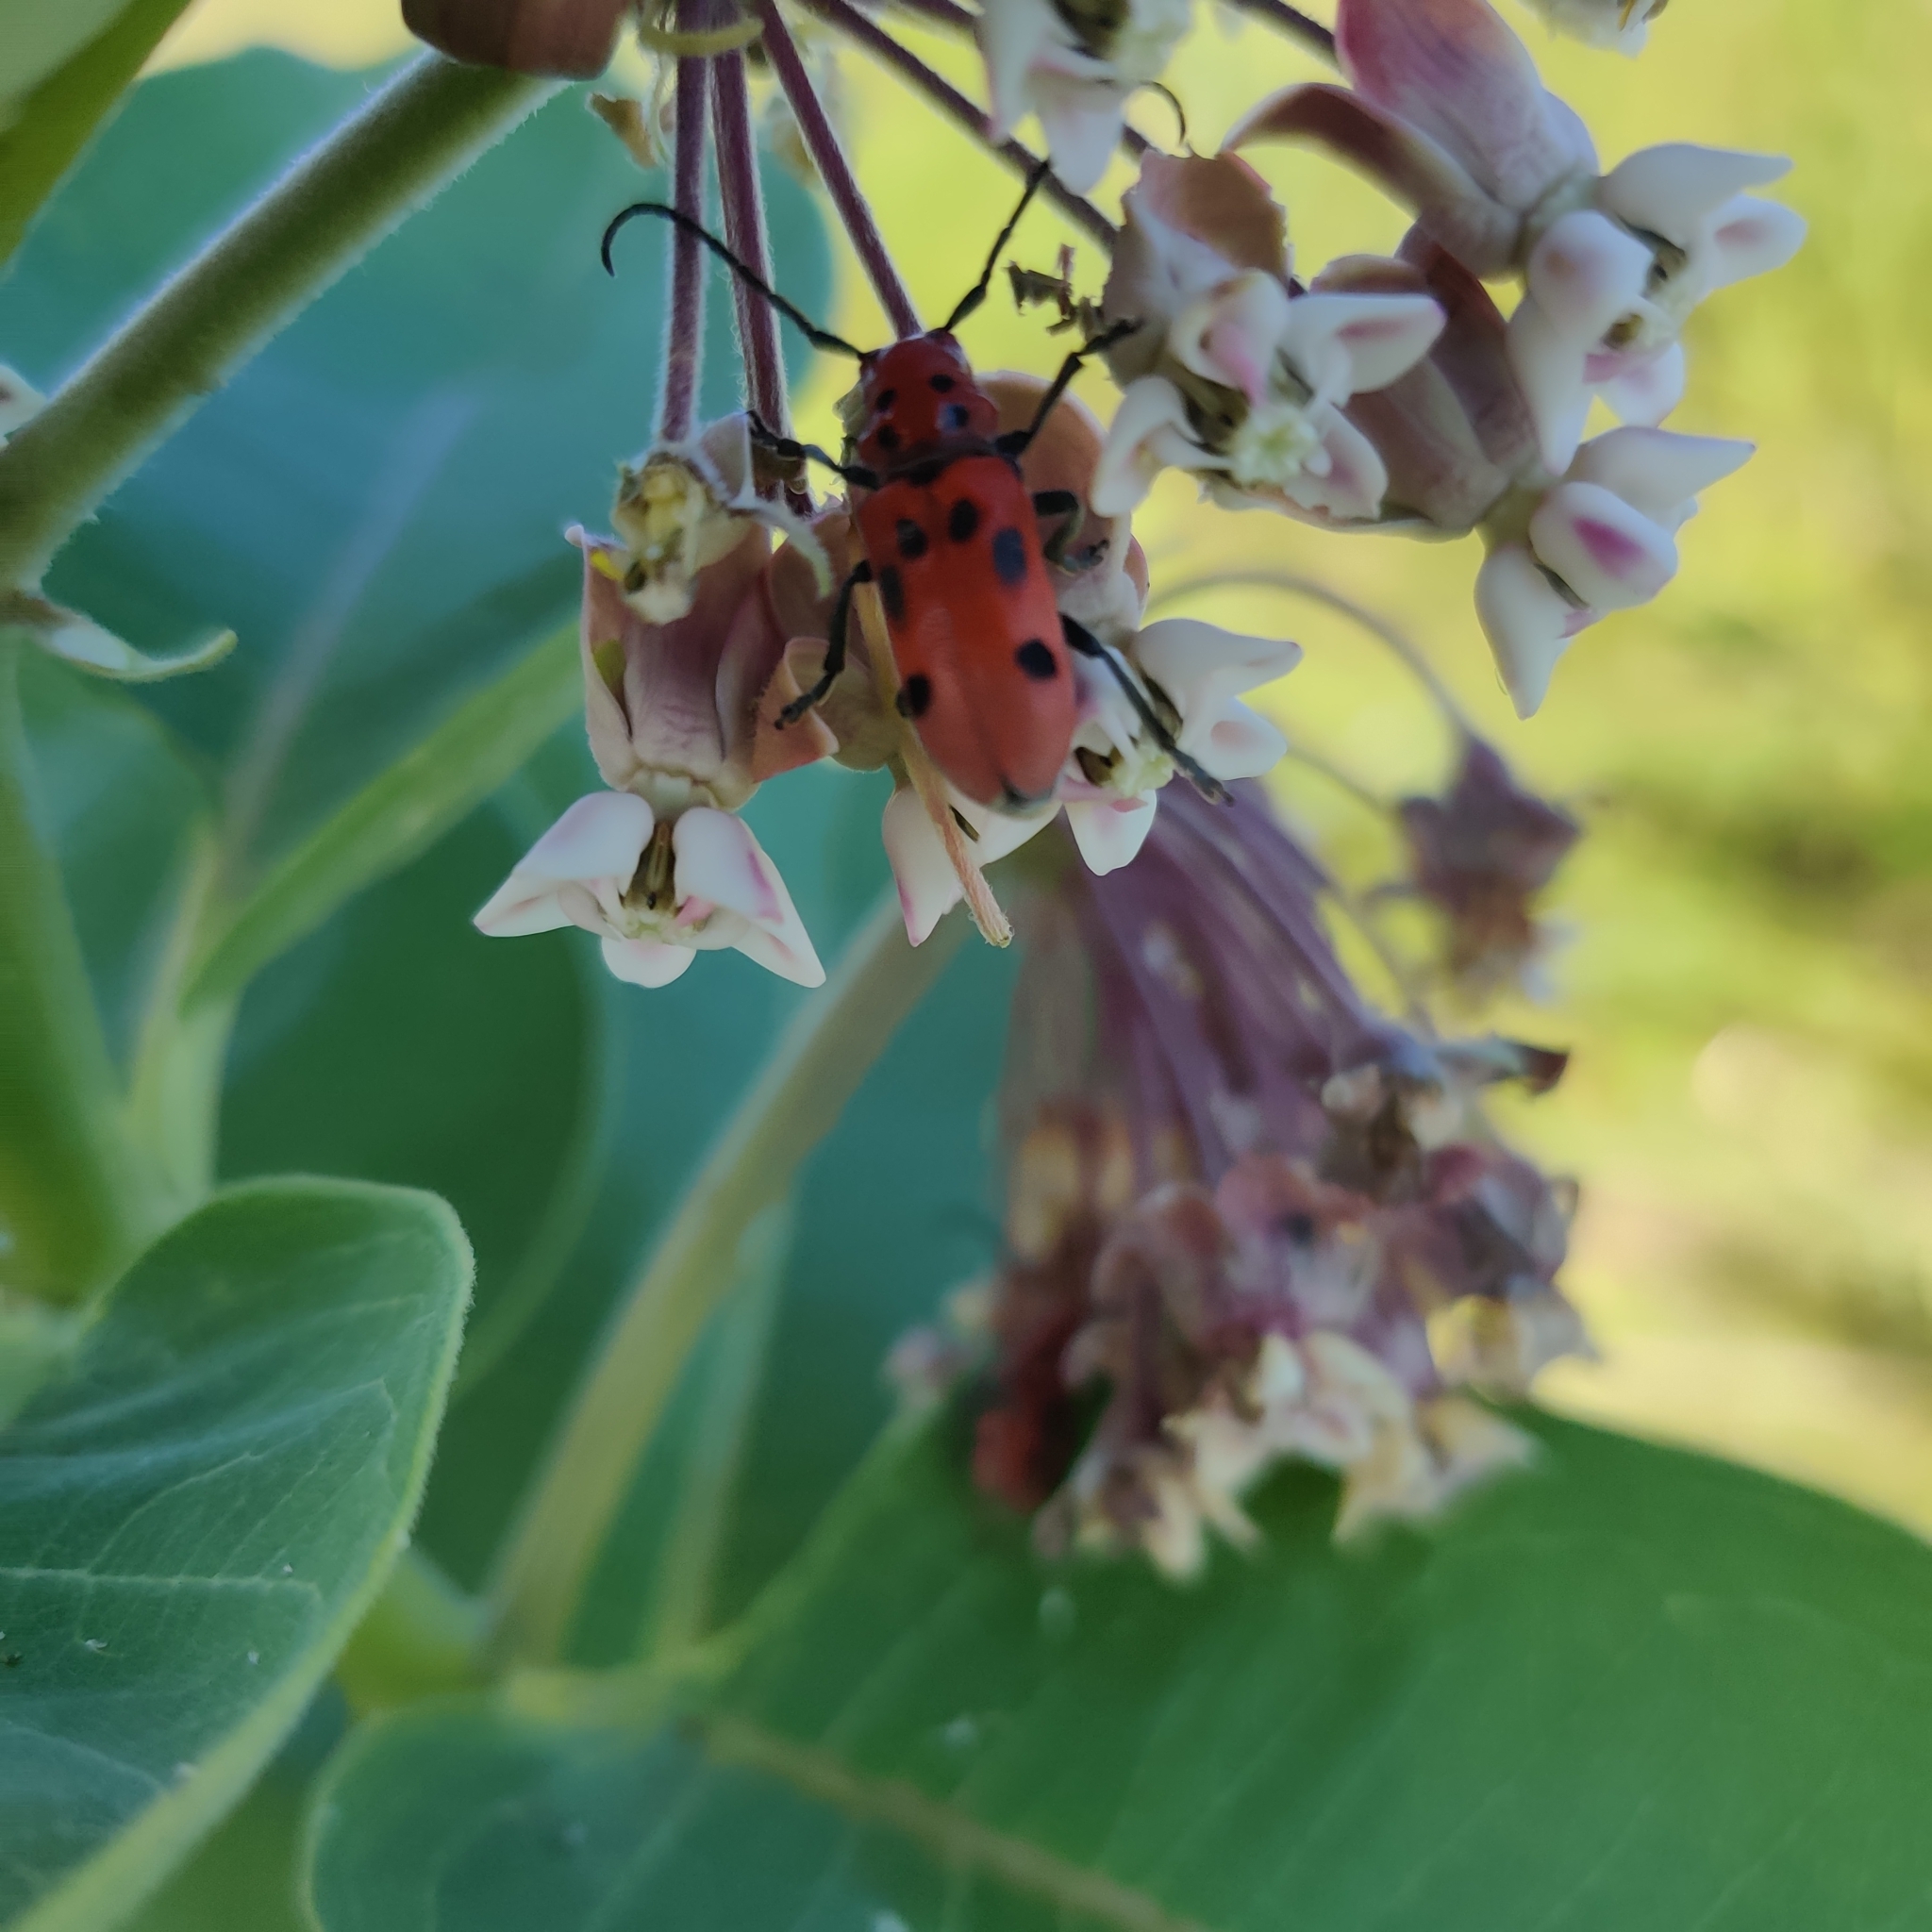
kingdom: Animalia
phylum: Arthropoda
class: Insecta
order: Coleoptera
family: Cerambycidae
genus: Tetraopes
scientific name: Tetraopes tetrophthalmus
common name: Red milkweed beetle
